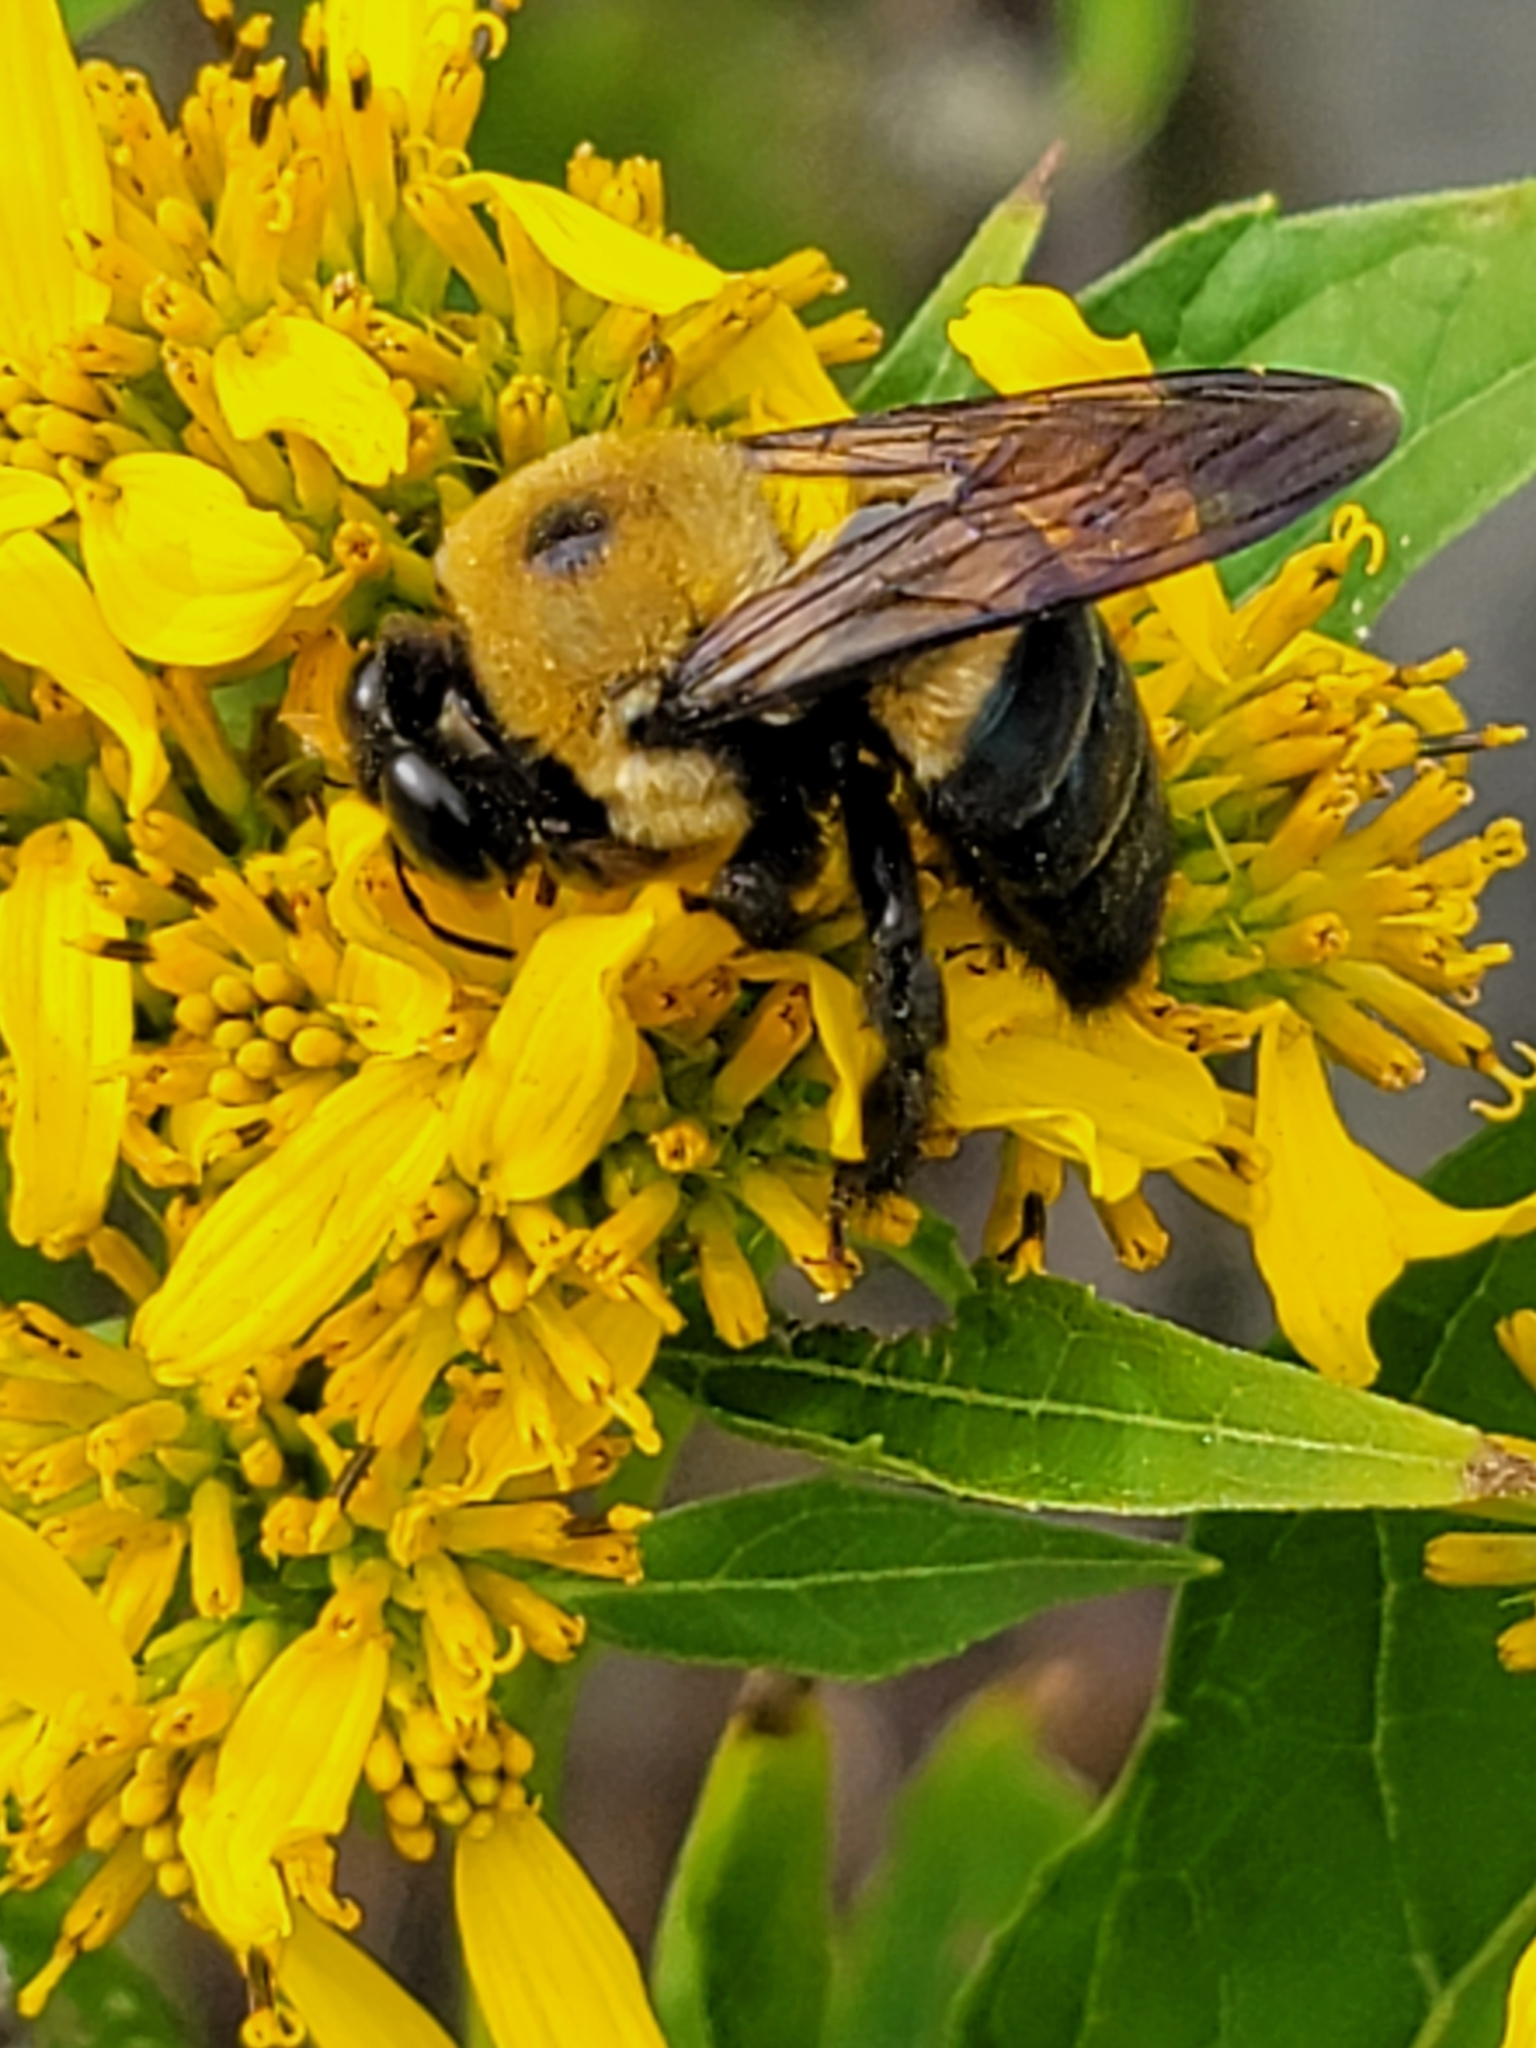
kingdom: Animalia
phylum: Arthropoda
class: Insecta
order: Hymenoptera
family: Apidae
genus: Xylocopa
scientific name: Xylocopa virginica
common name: Carpenter bee
